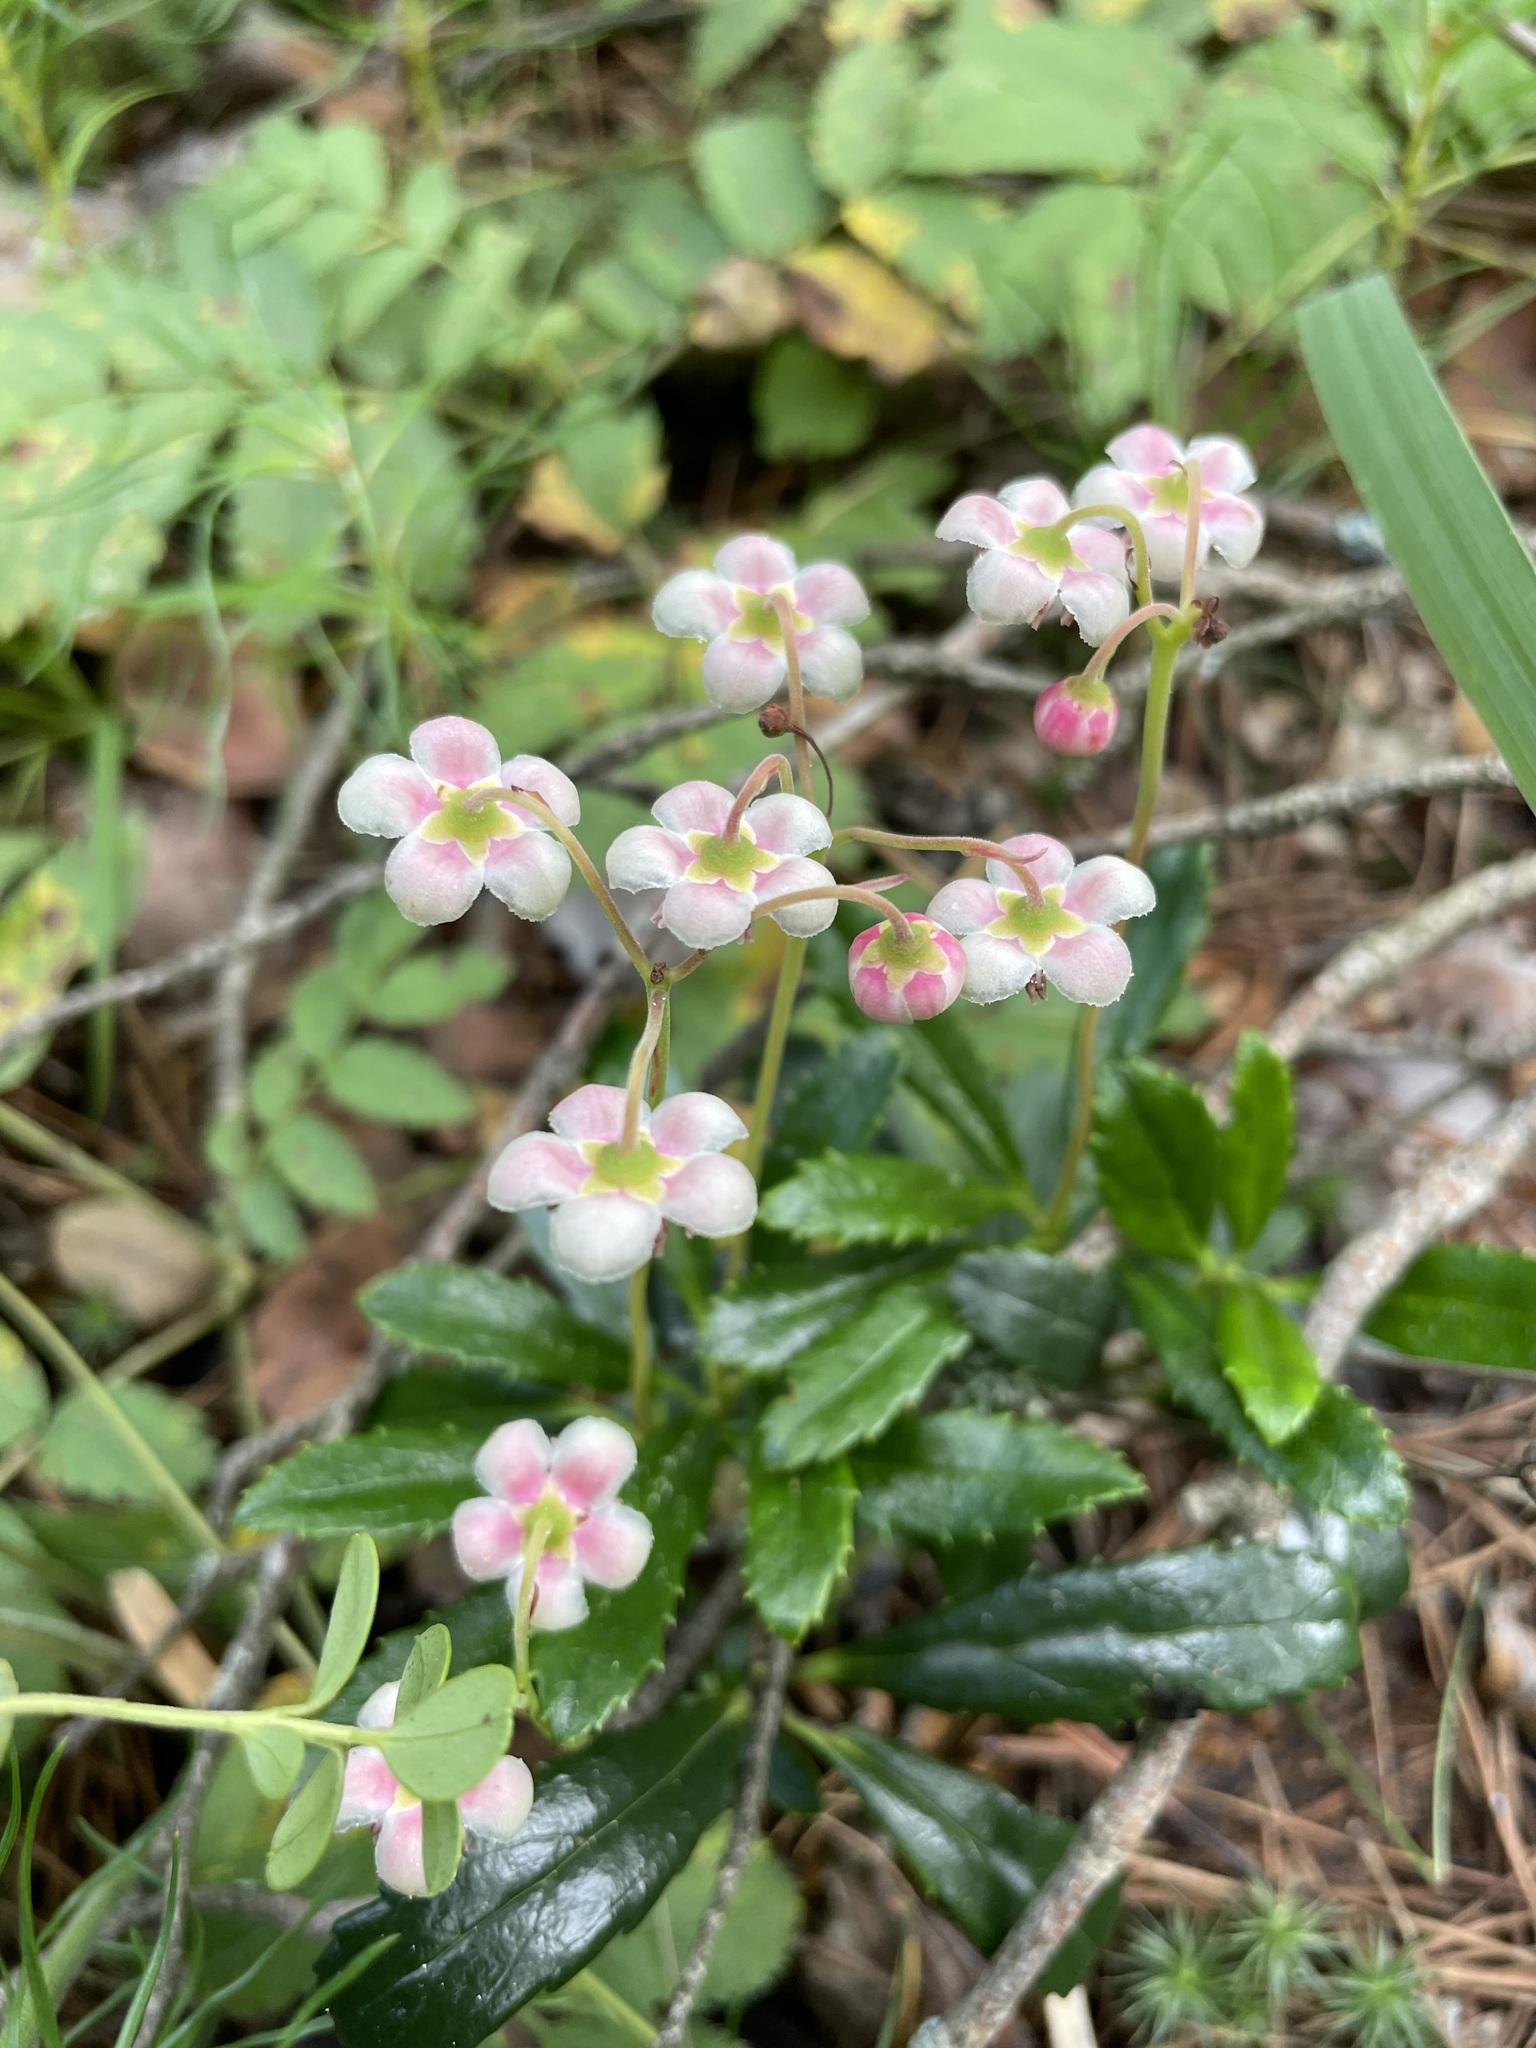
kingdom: Plantae
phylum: Tracheophyta
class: Magnoliopsida
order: Ericales
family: Ericaceae
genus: Chimaphila
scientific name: Chimaphila umbellata
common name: Pipsissewa
